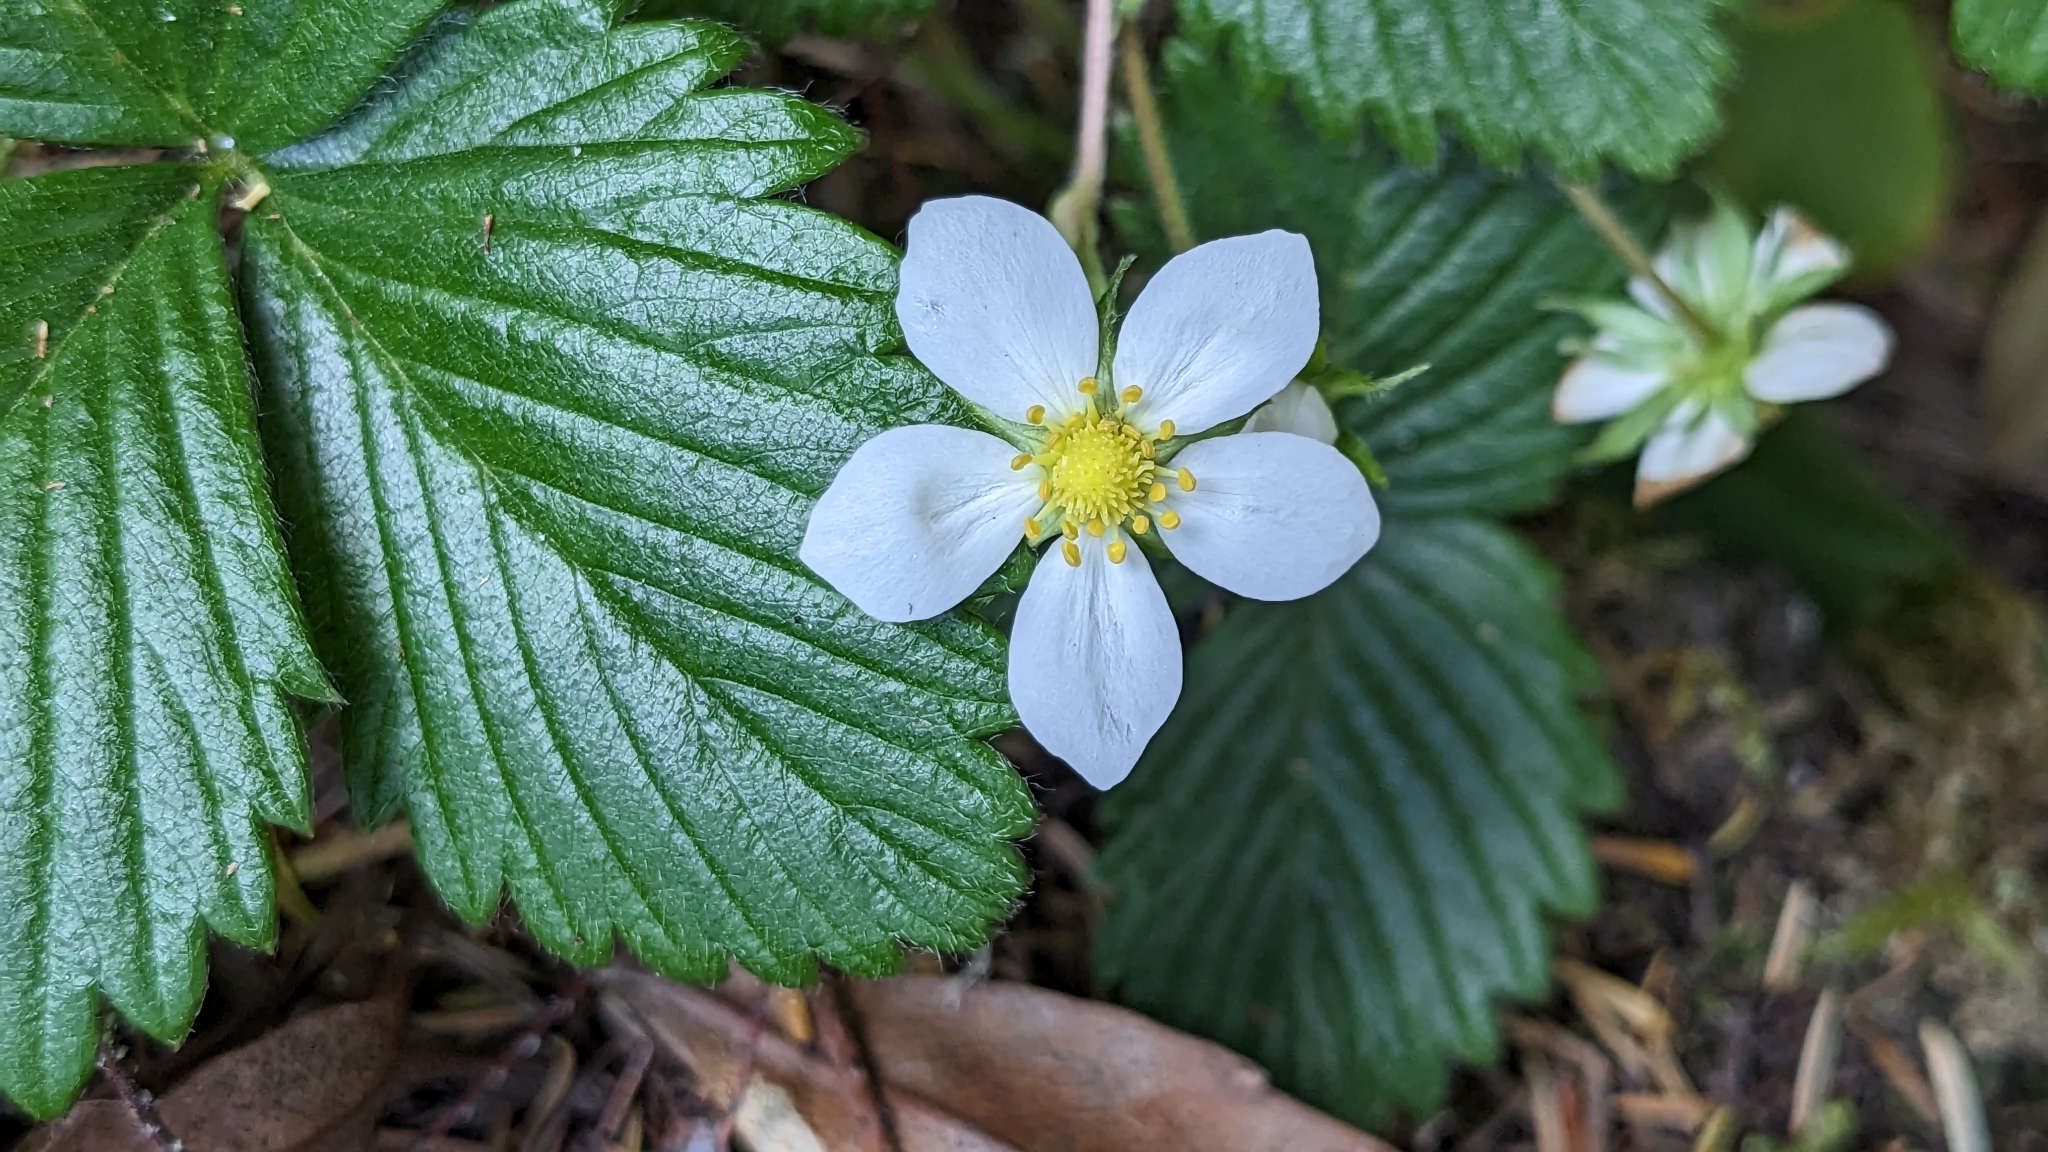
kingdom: Plantae
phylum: Tracheophyta
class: Magnoliopsida
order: Rosales
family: Rosaceae
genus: Fragaria
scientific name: Fragaria vesca
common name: Wild strawberry
